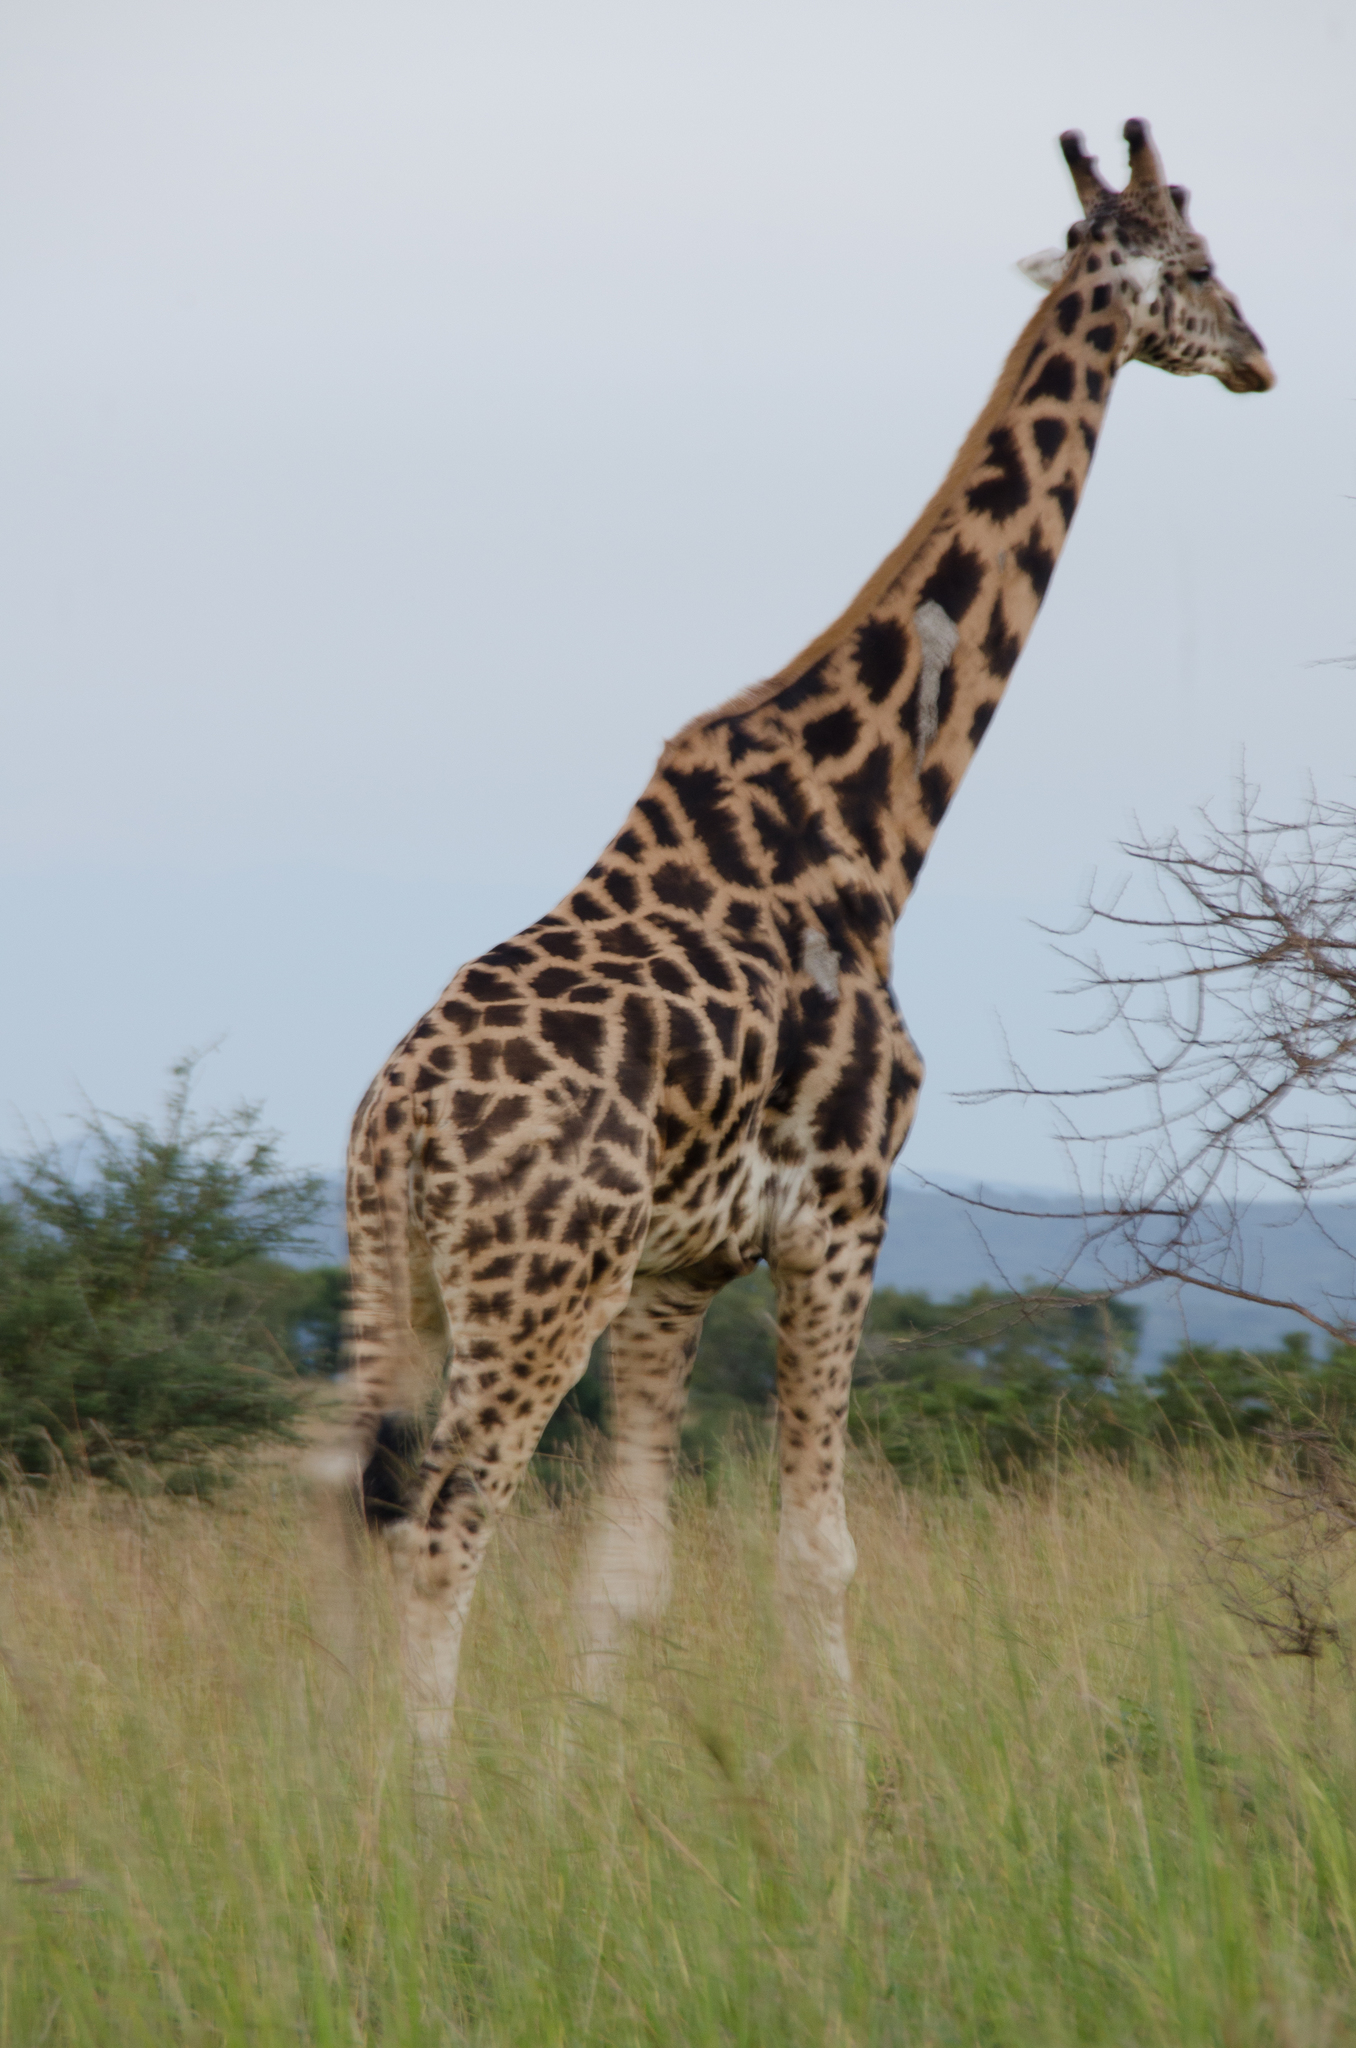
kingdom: Animalia
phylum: Chordata
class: Mammalia
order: Artiodactyla
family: Giraffidae
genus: Giraffa
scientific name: Giraffa camelopardalis
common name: Giraffe
